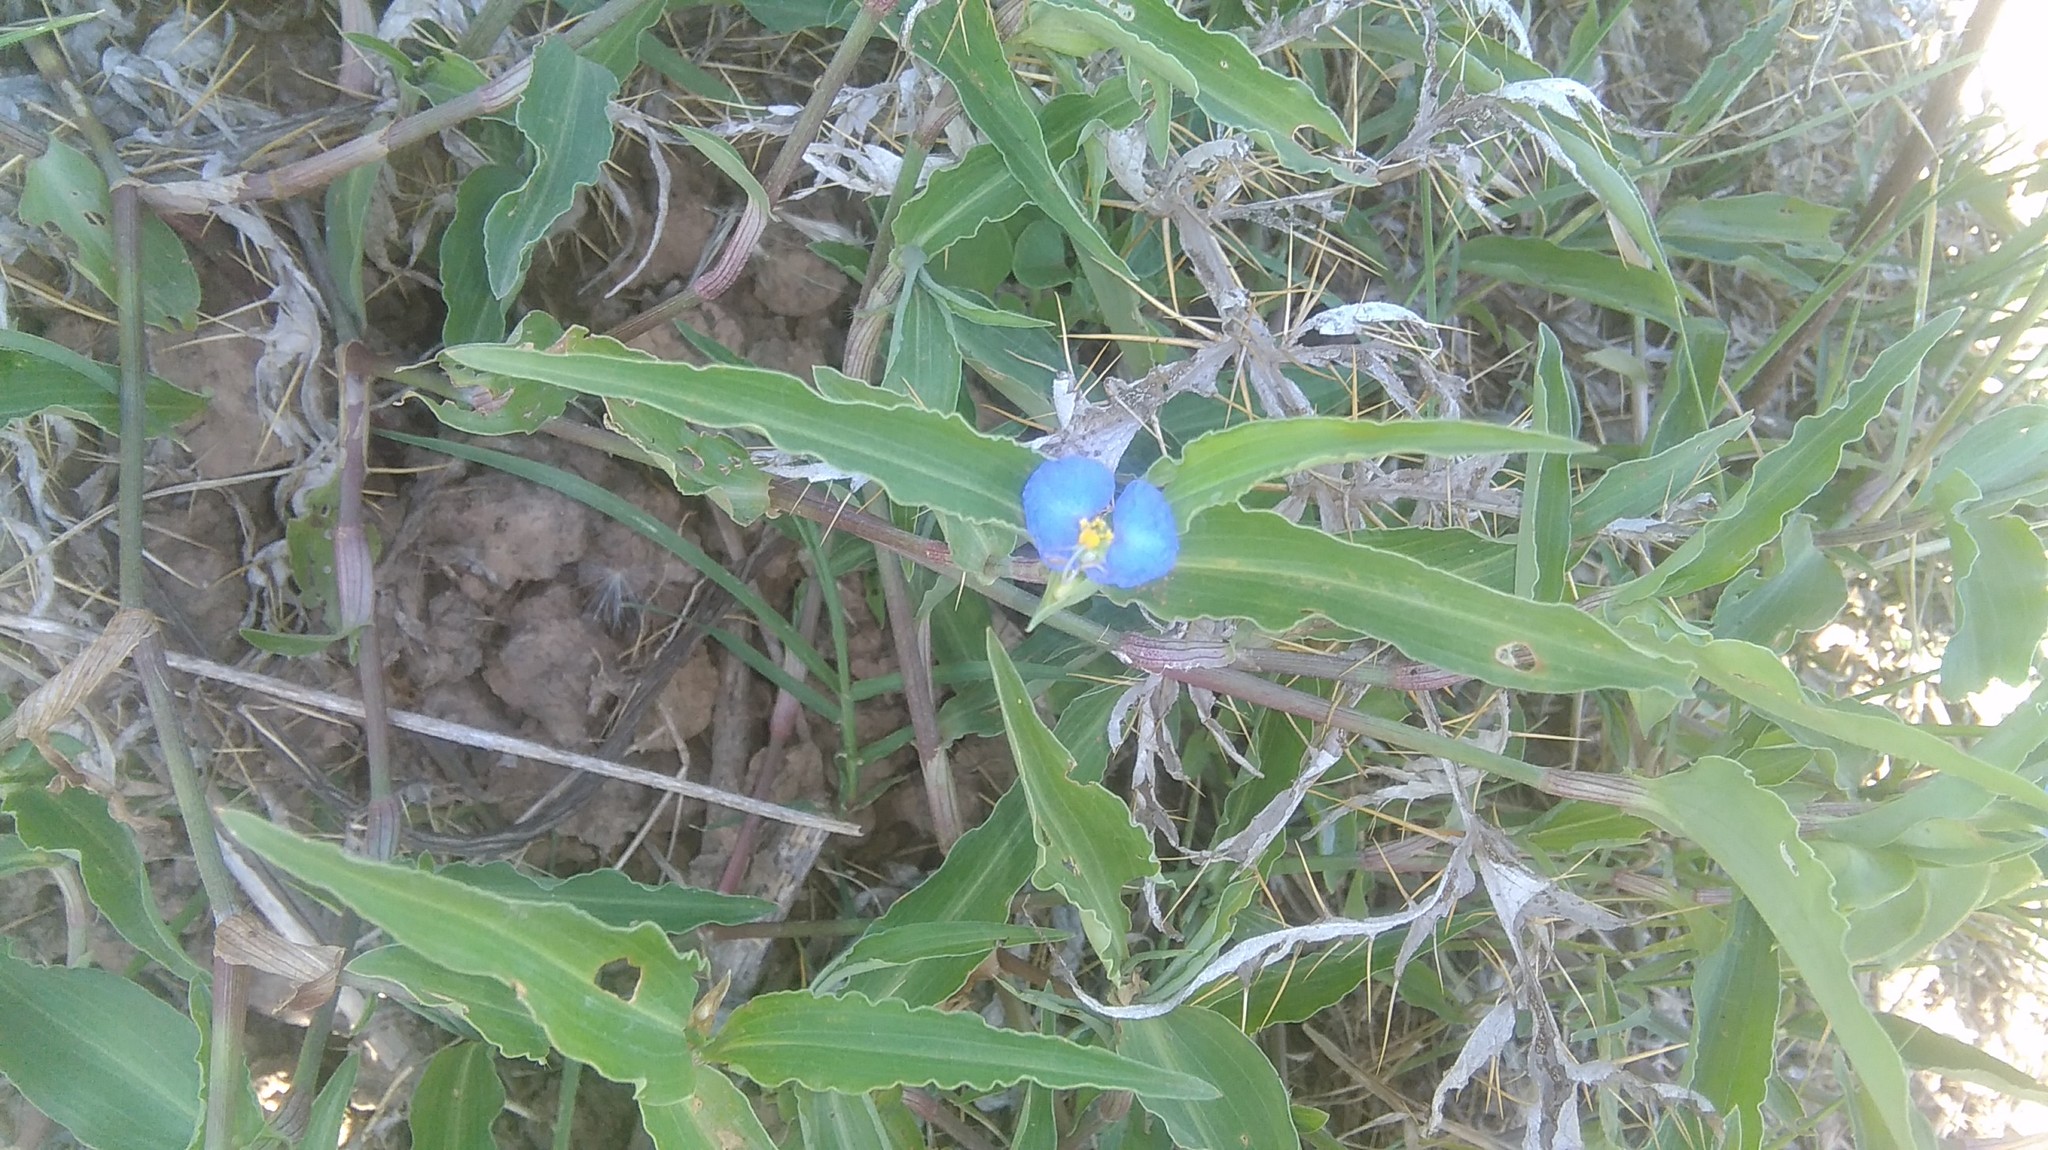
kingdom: Plantae
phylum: Tracheophyta
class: Liliopsida
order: Commelinales
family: Commelinaceae
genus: Commelina
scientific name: Commelina erecta
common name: Blousel blommetjie
